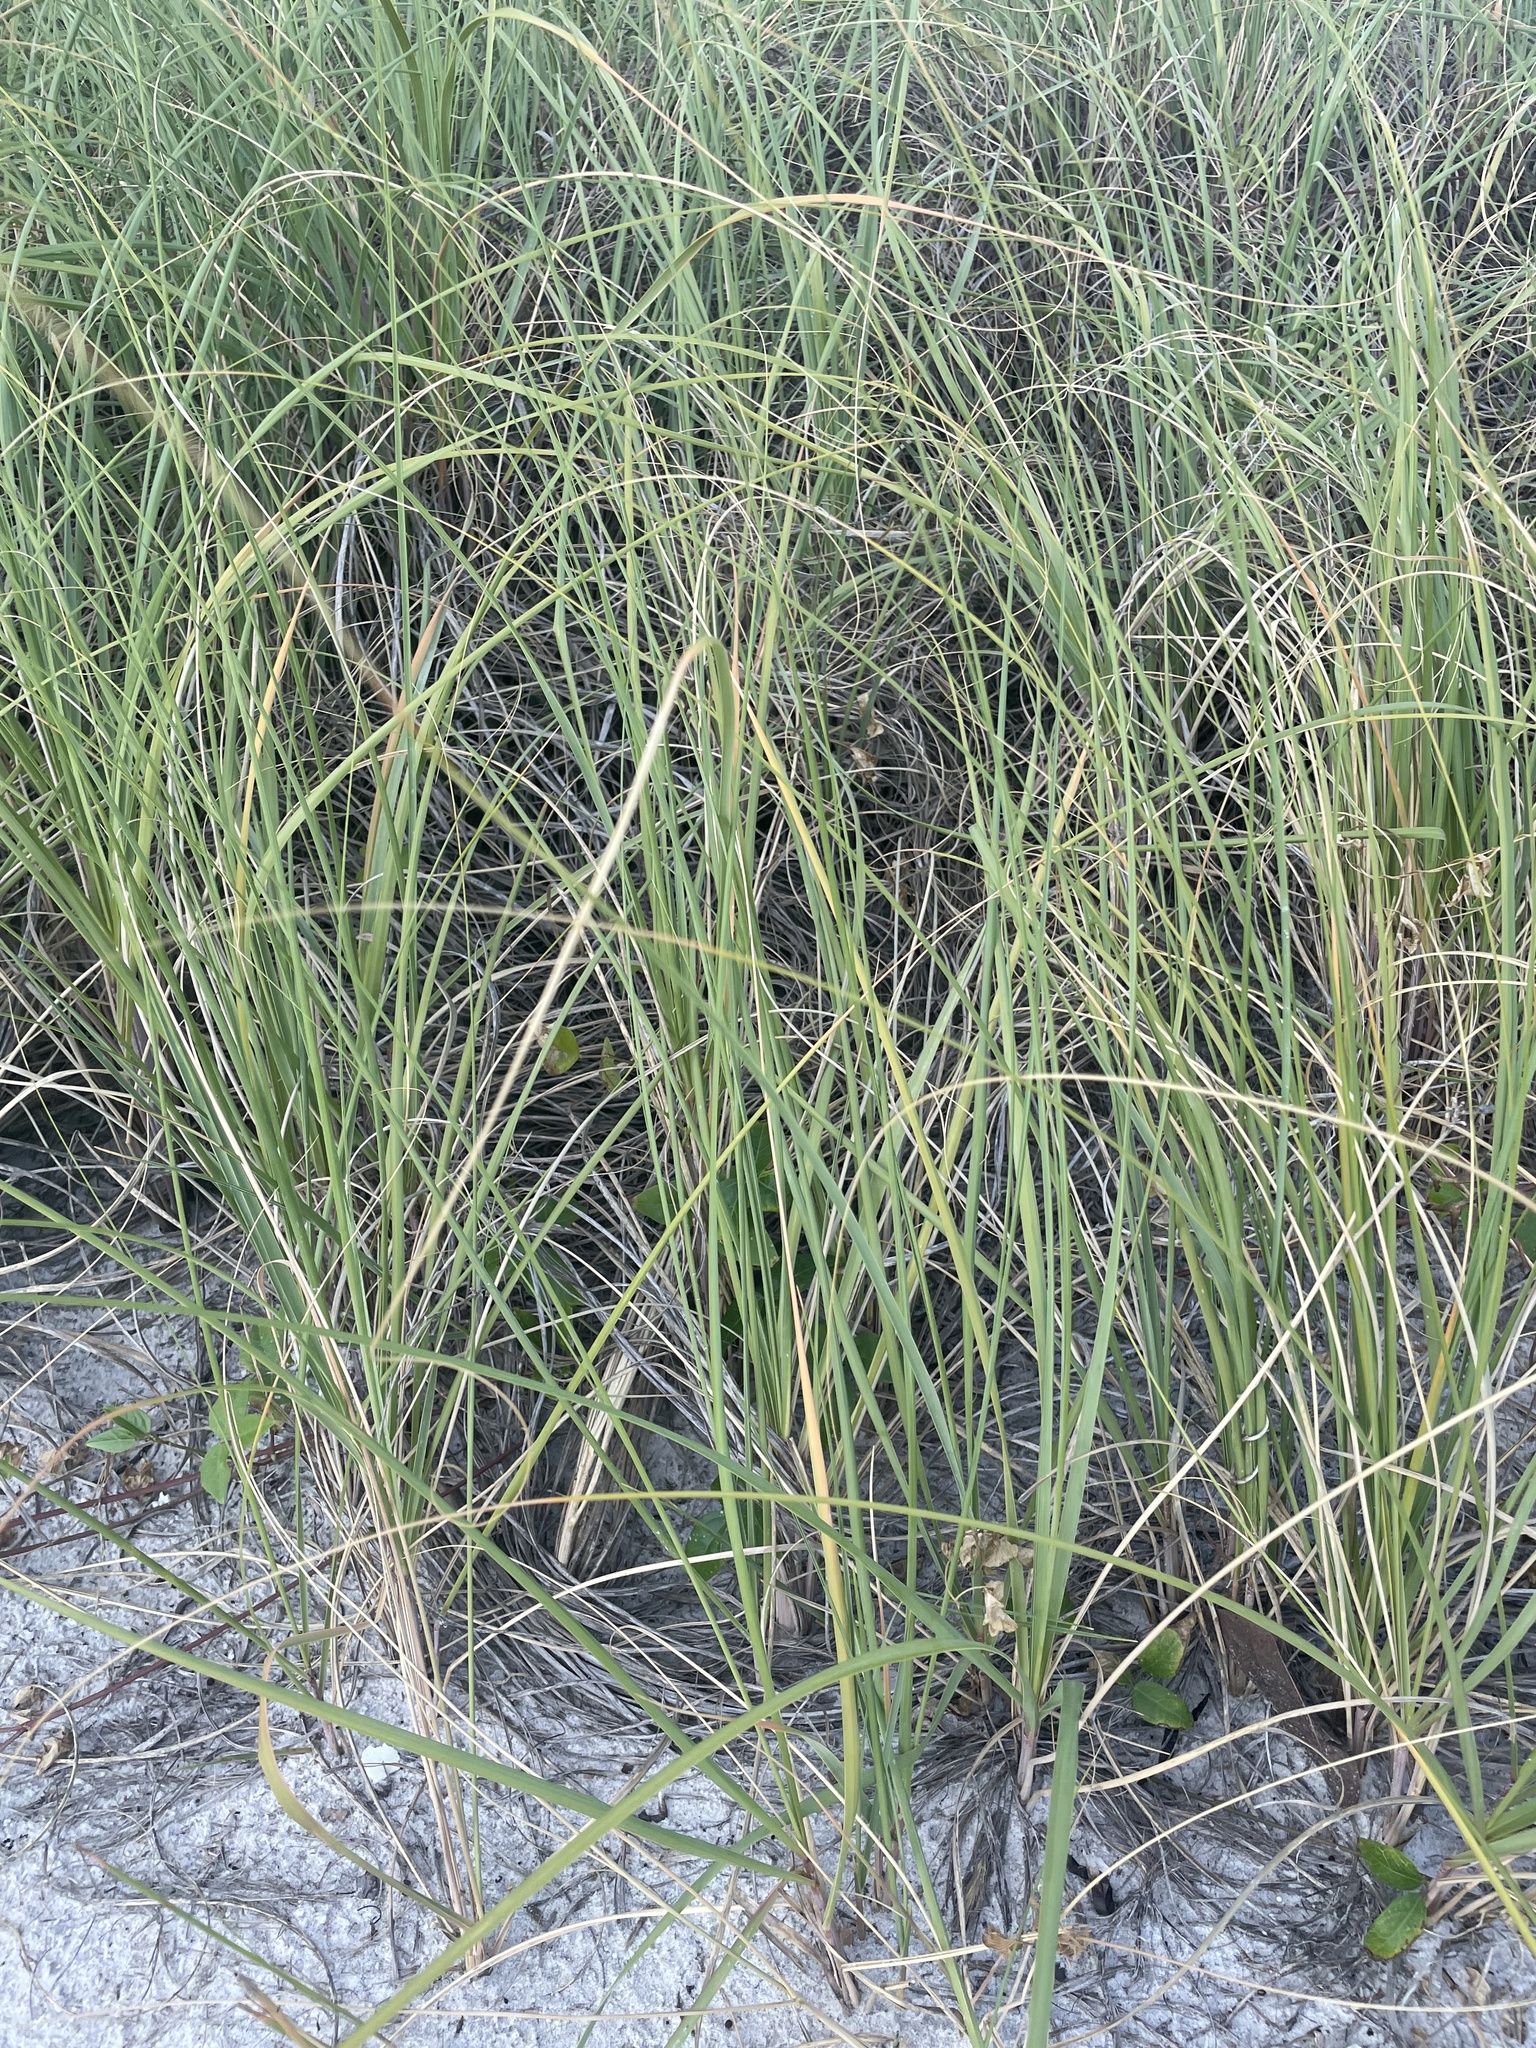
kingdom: Plantae
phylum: Tracheophyta
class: Liliopsida
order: Poales
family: Poaceae
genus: Uniola
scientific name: Uniola paniculata
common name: Seaside-oats
